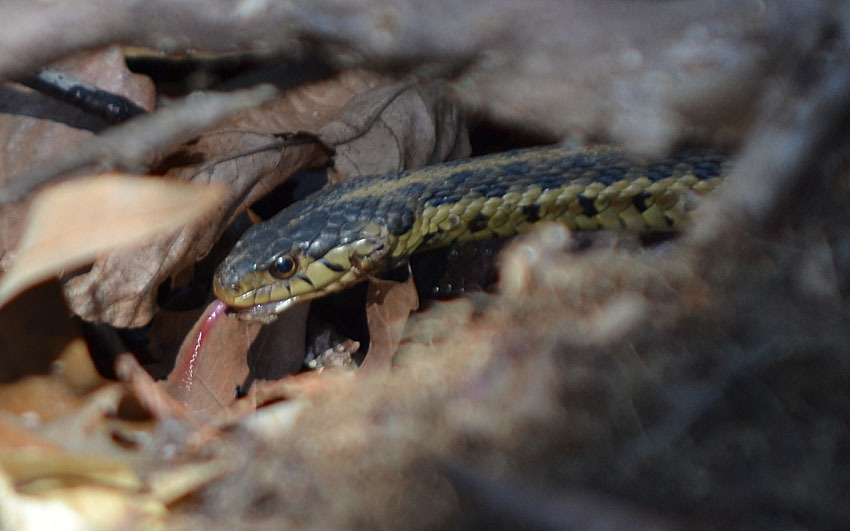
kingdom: Animalia
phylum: Chordata
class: Squamata
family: Colubridae
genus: Thamnophis
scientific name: Thamnophis sirtalis
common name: Common garter snake
